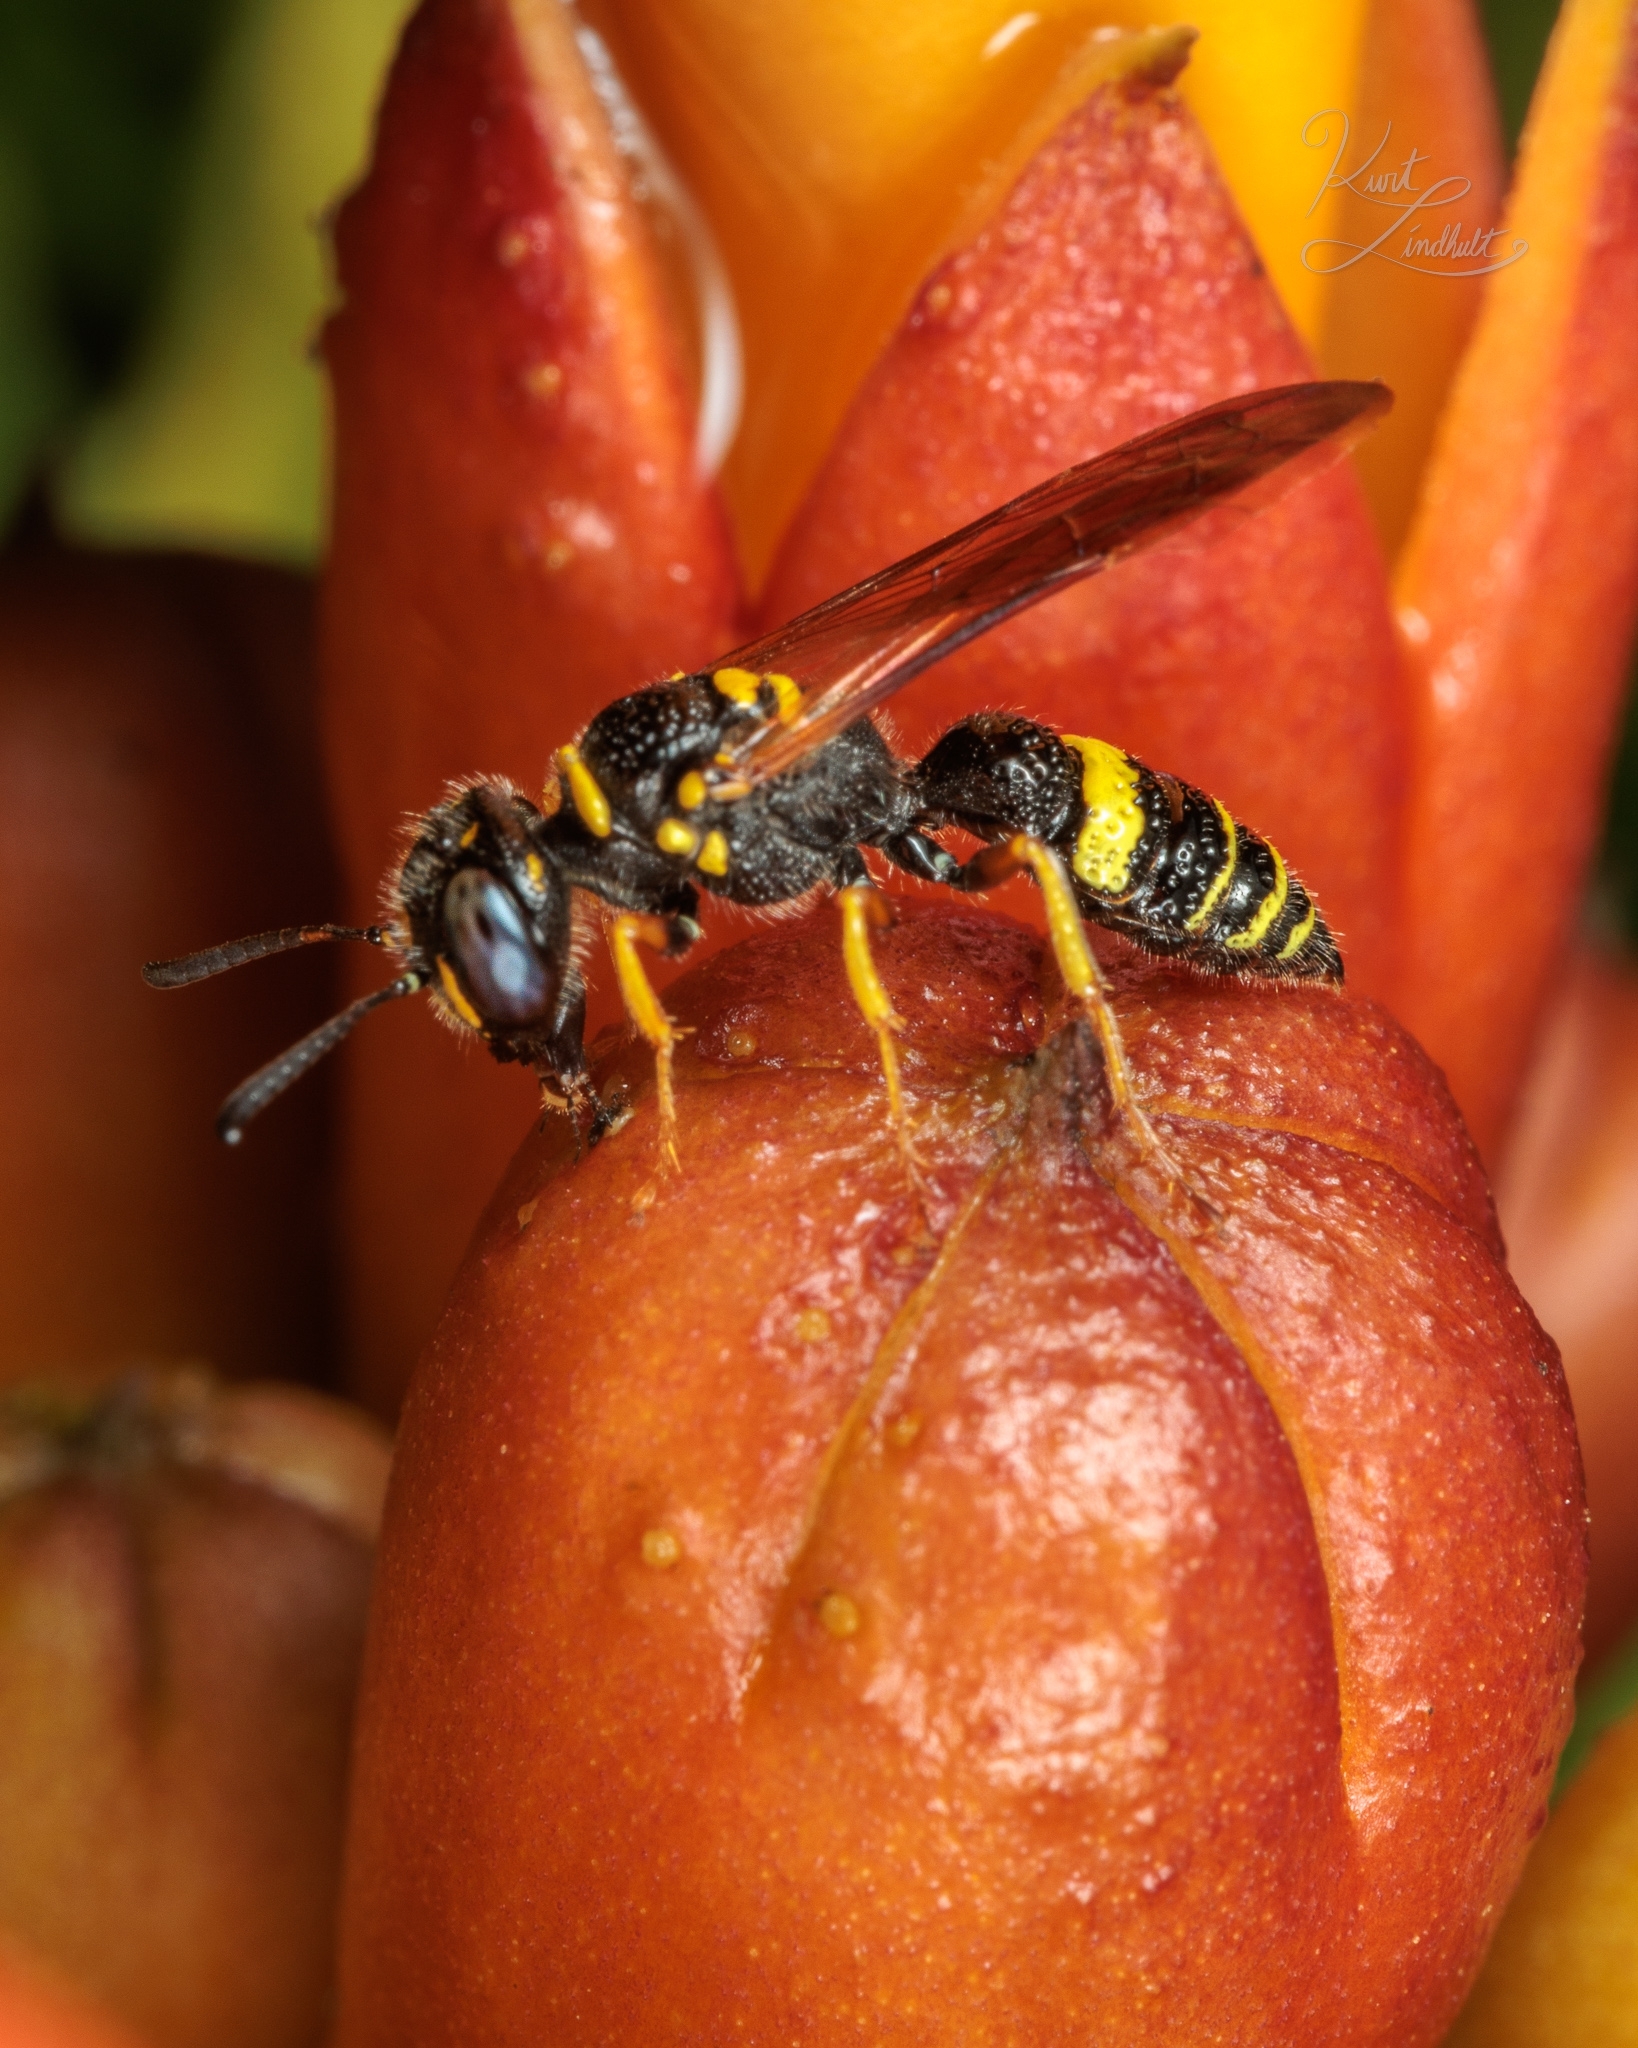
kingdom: Animalia
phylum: Arthropoda
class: Insecta
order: Hymenoptera
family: Crabronidae
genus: Philanthus
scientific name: Philanthus gibbosus
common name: Humped beewolf
